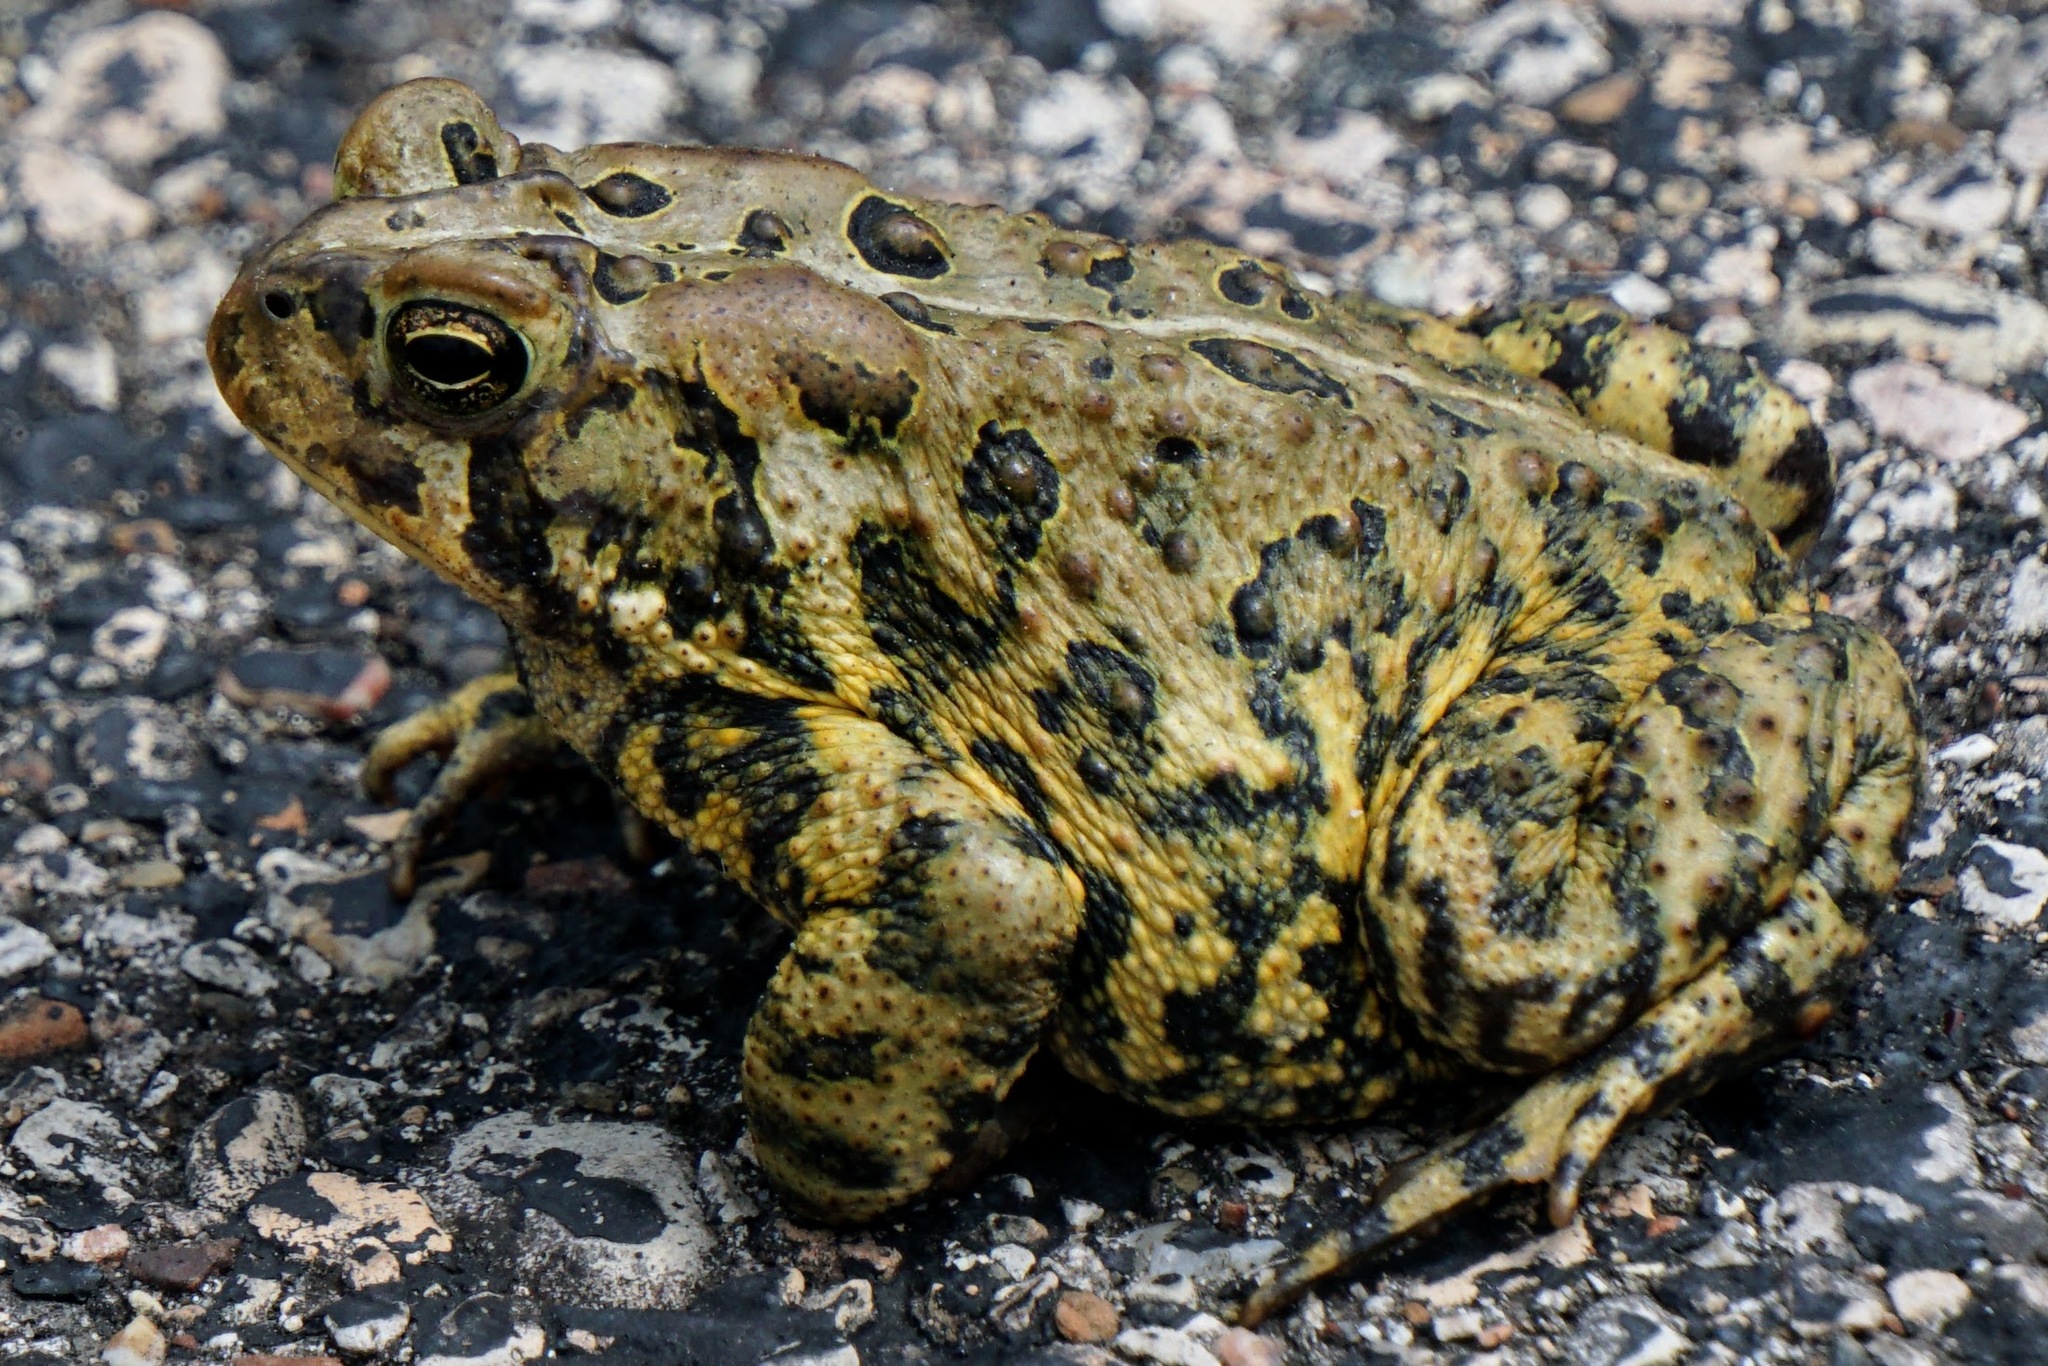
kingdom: Animalia
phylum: Chordata
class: Amphibia
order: Anura
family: Bufonidae
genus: Anaxyrus
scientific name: Anaxyrus americanus
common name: American toad
